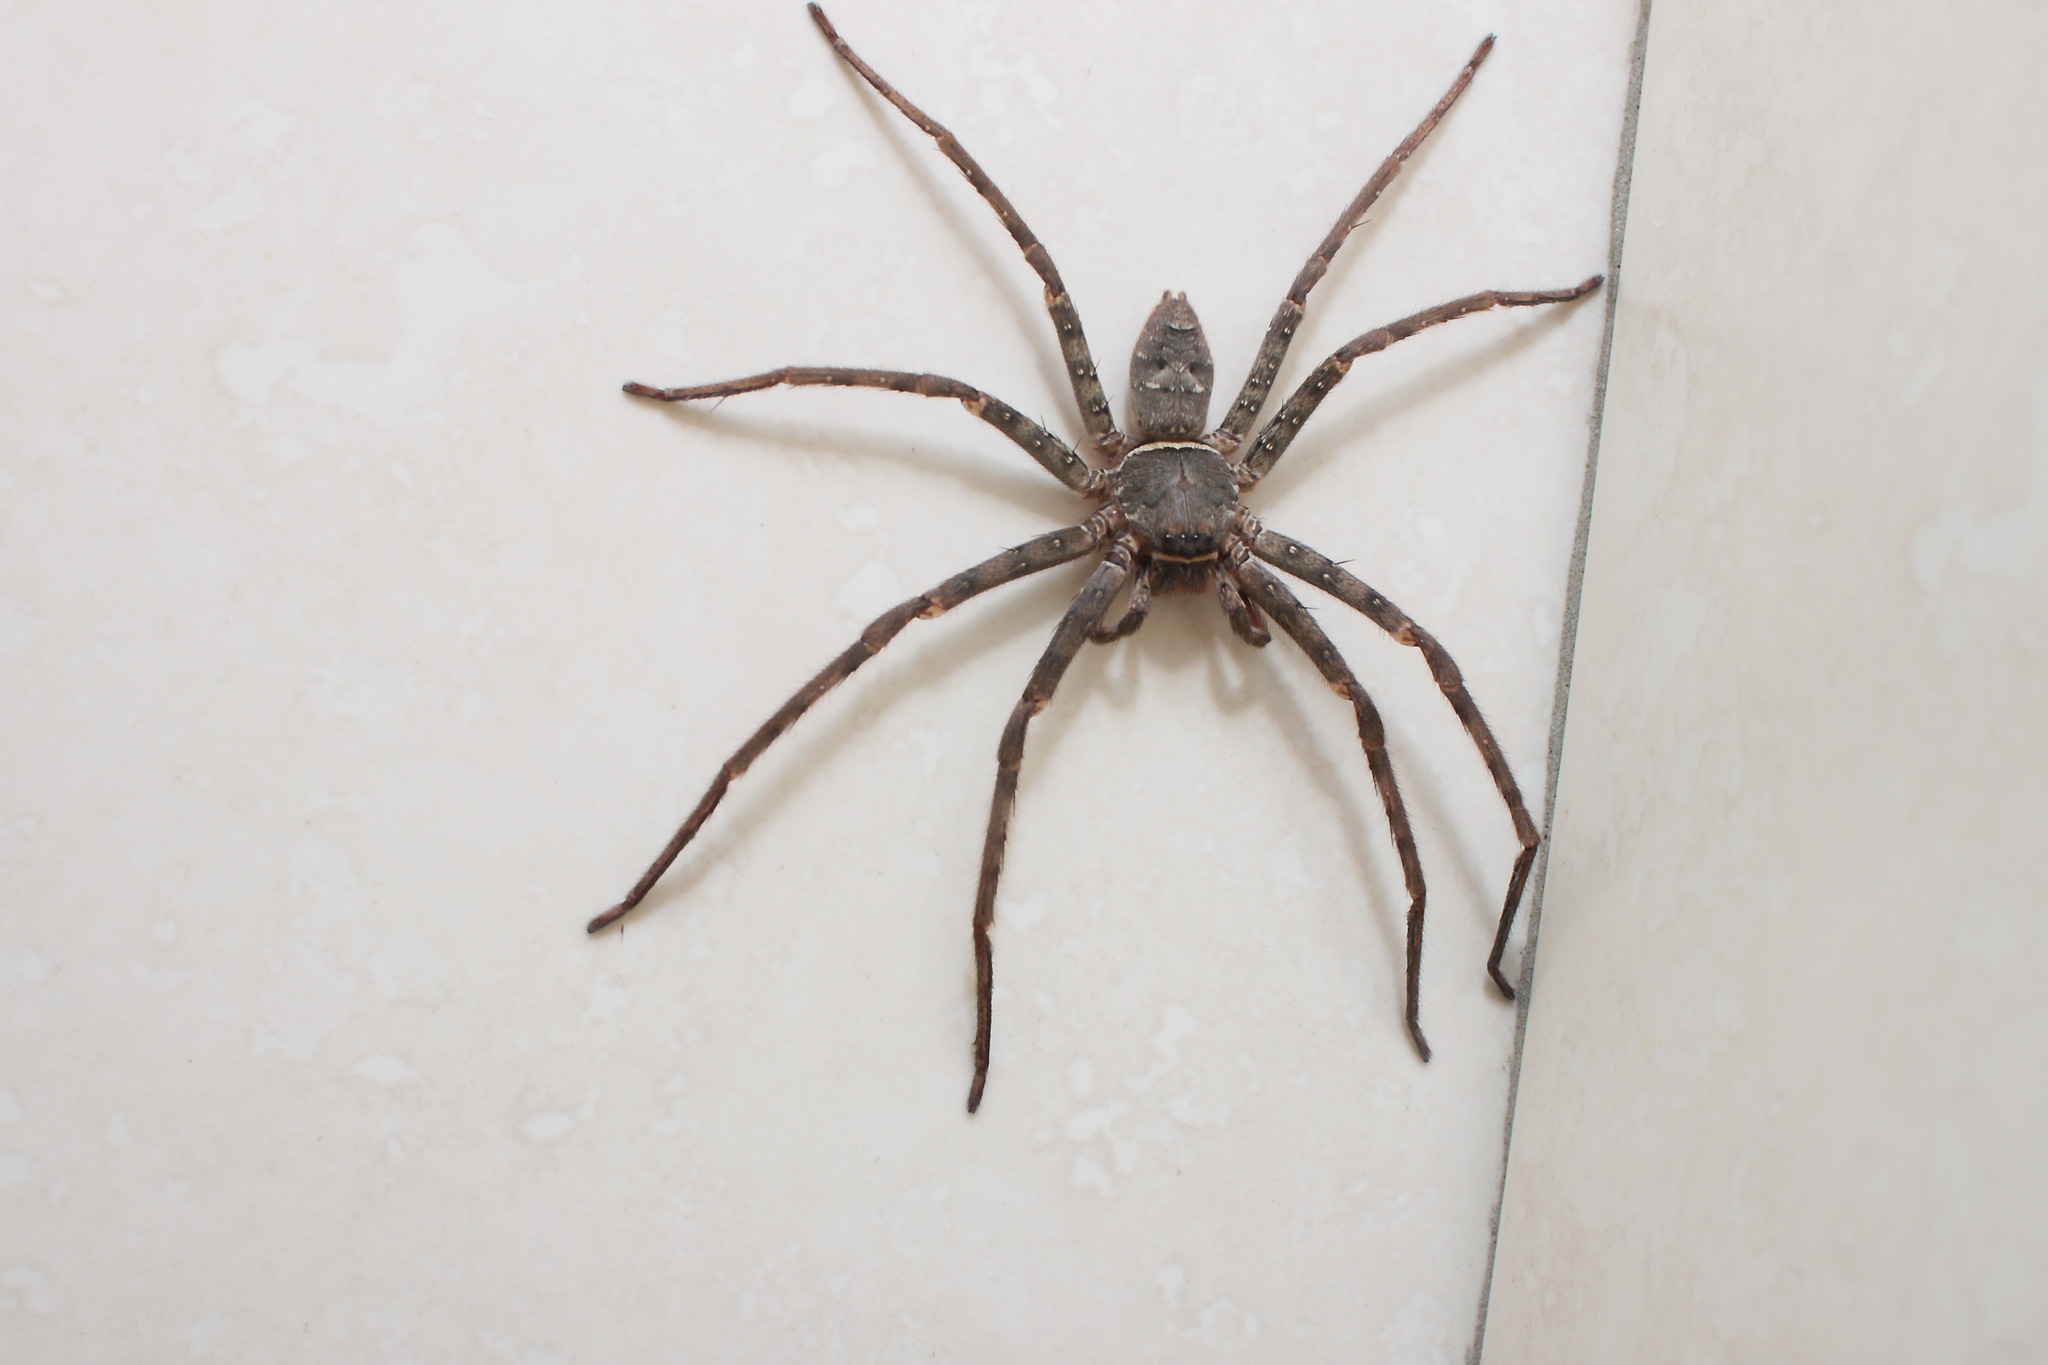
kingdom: Animalia
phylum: Arthropoda
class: Arachnida
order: Araneae
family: Sparassidae
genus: Heteropoda
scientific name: Heteropoda venatoria
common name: Huntsman spider
